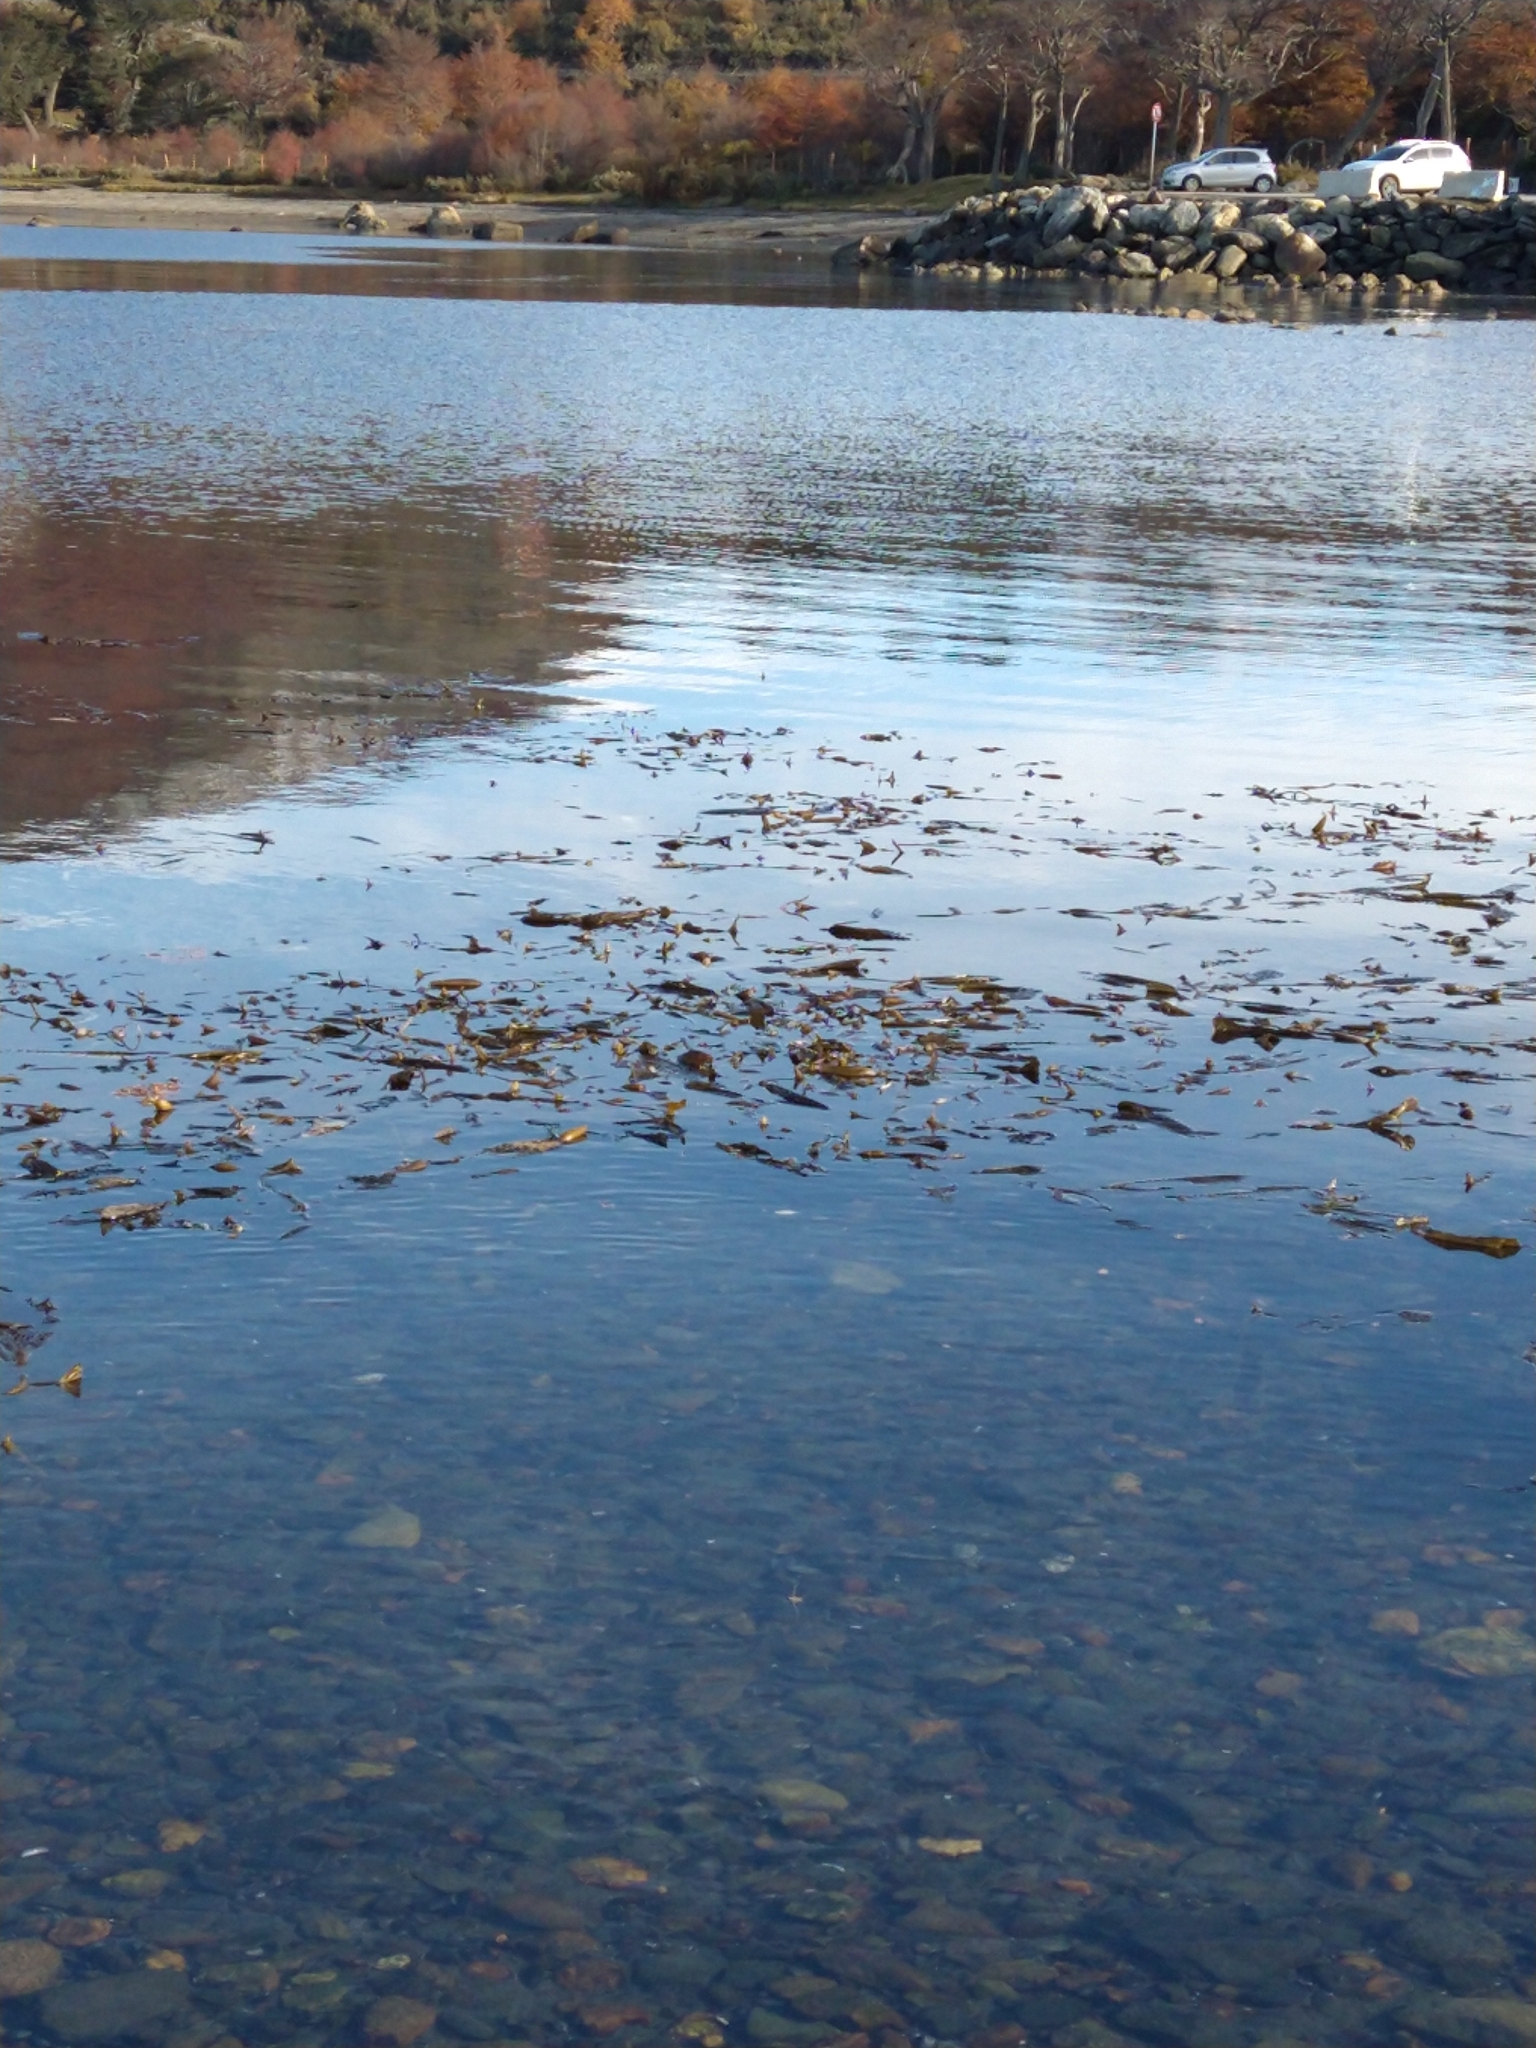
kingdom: Chromista
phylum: Ochrophyta
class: Phaeophyceae
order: Laminariales
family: Laminariaceae
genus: Macrocystis
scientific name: Macrocystis pyrifera
